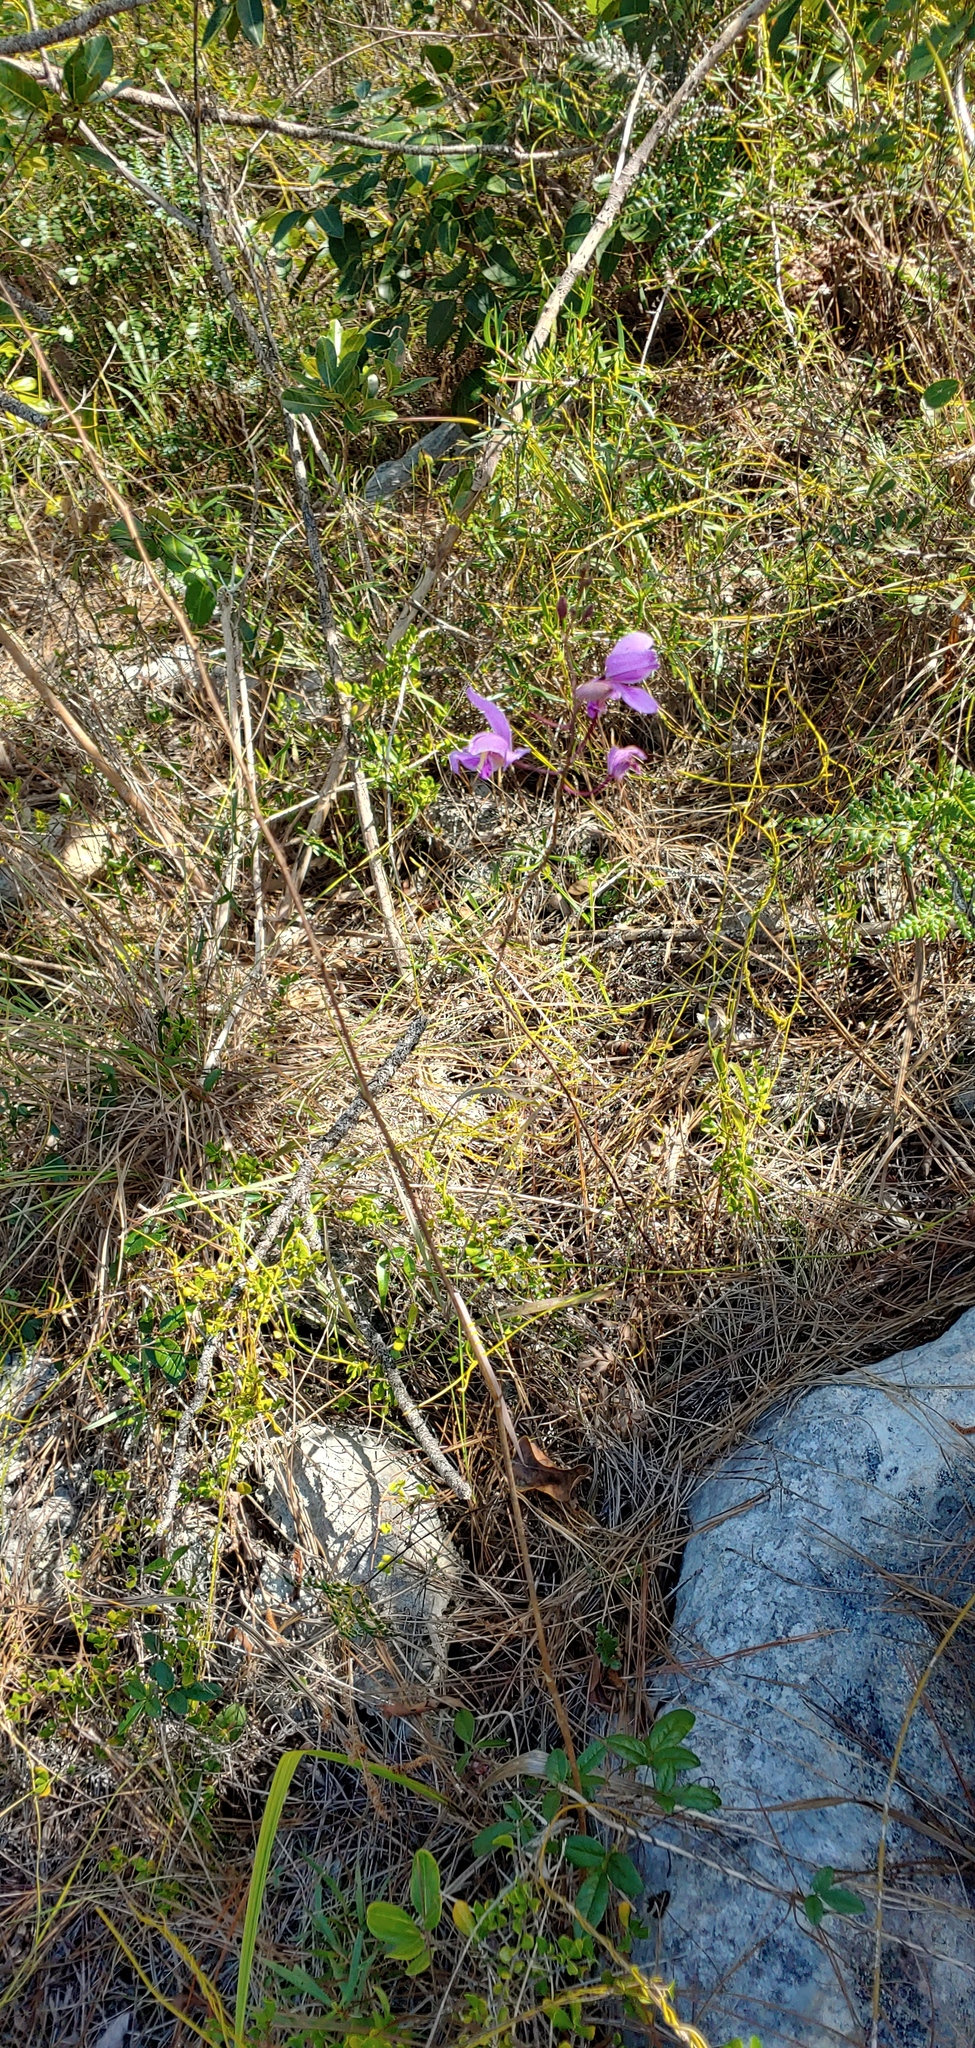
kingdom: Plantae
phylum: Tracheophyta
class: Liliopsida
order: Asparagales
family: Orchidaceae
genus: Bletia
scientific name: Bletia purpurea
